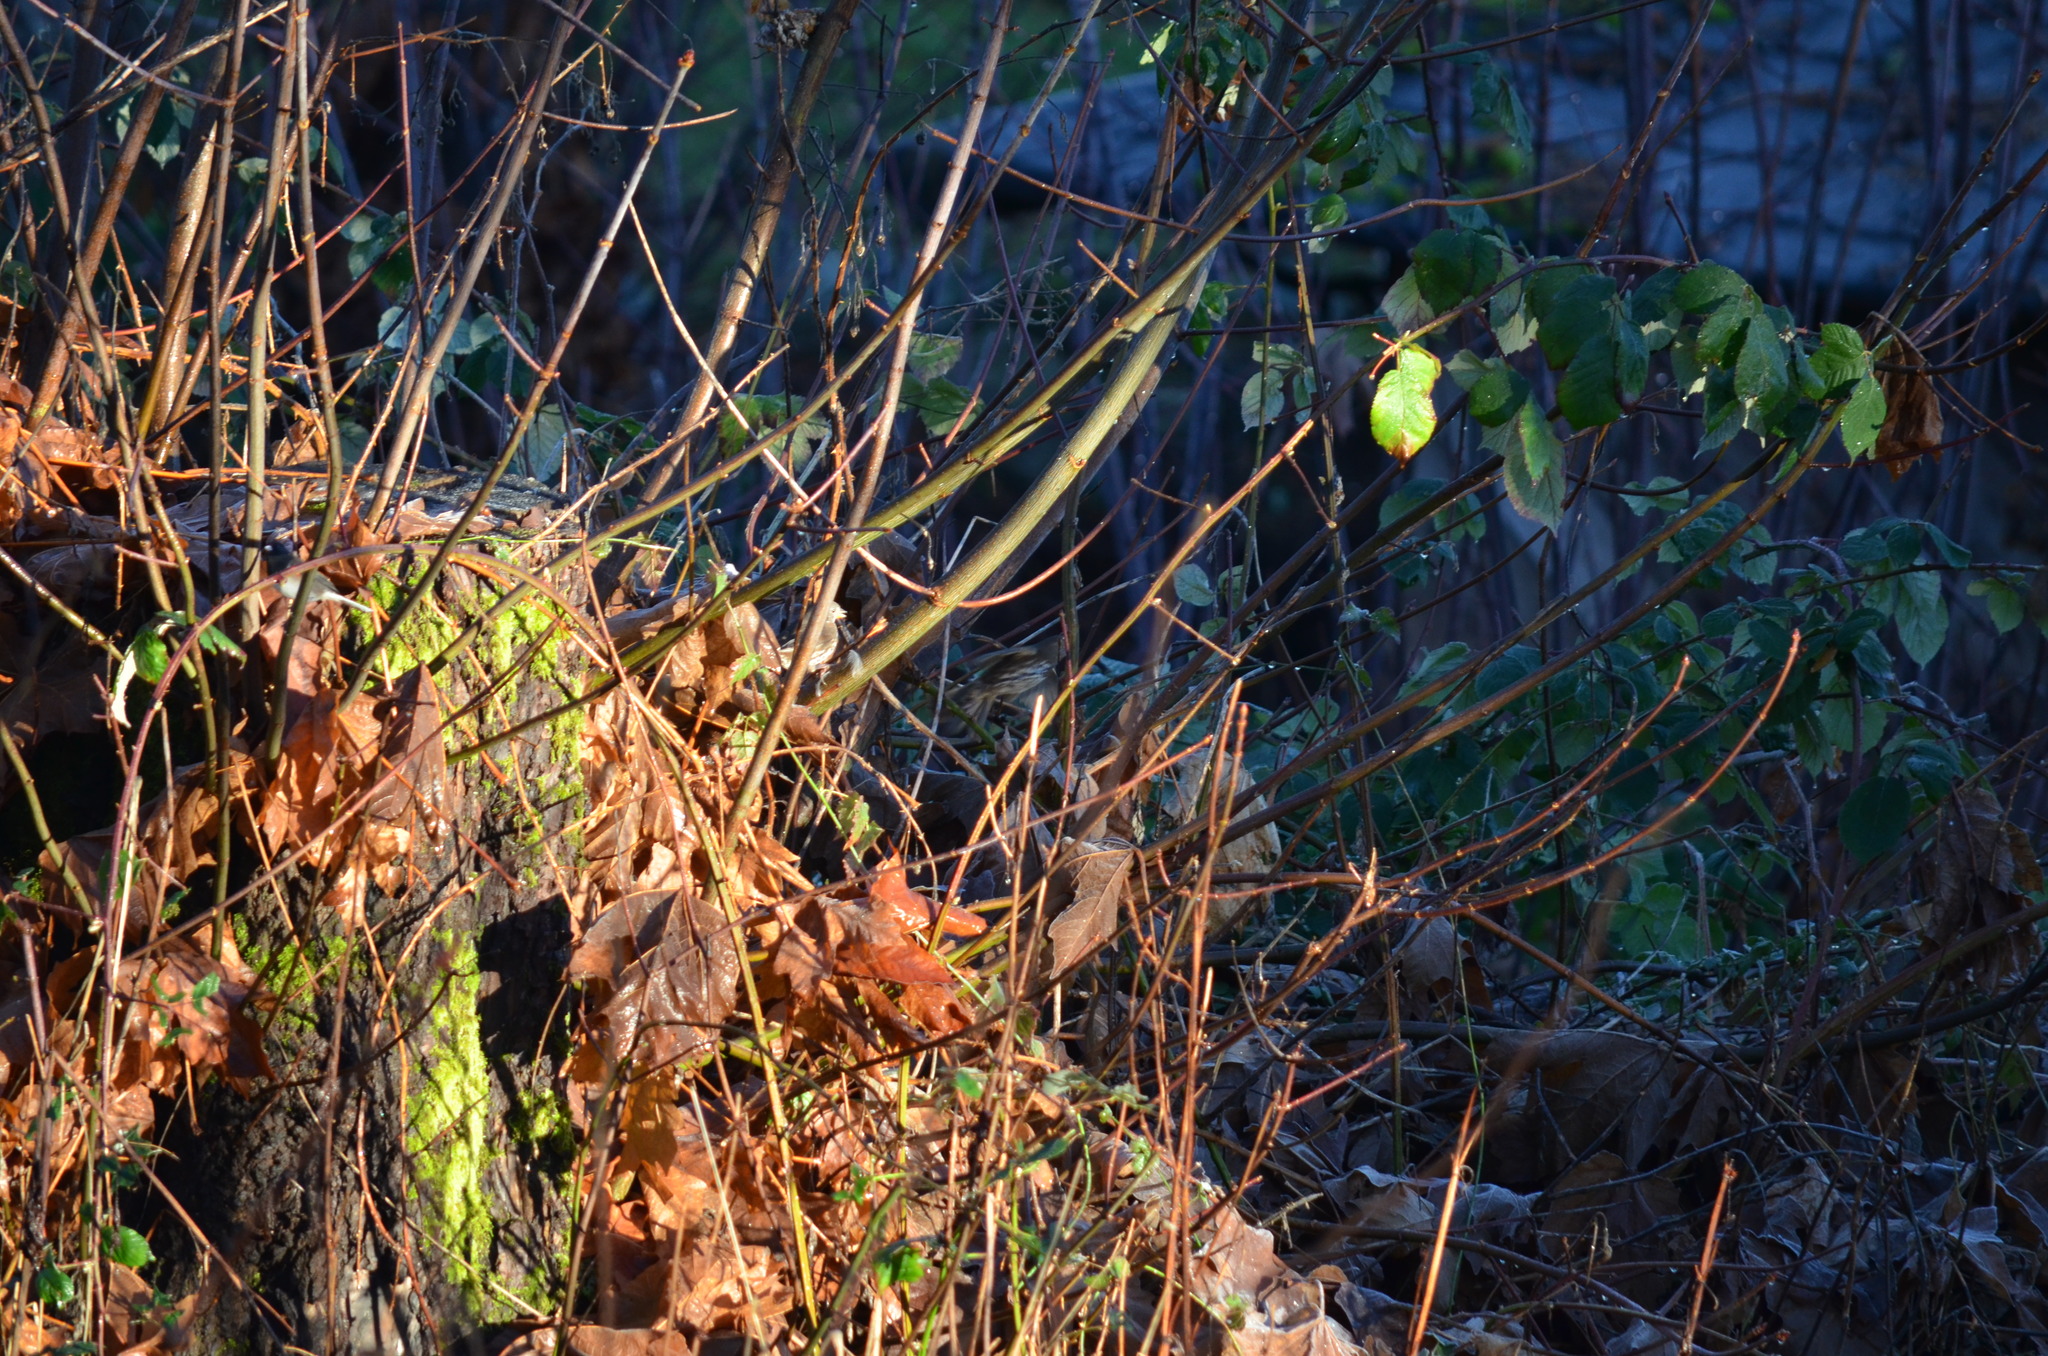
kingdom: Animalia
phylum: Chordata
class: Aves
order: Passeriformes
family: Passerellidae
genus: Passerella
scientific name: Passerella iliaca
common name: Fox sparrow
